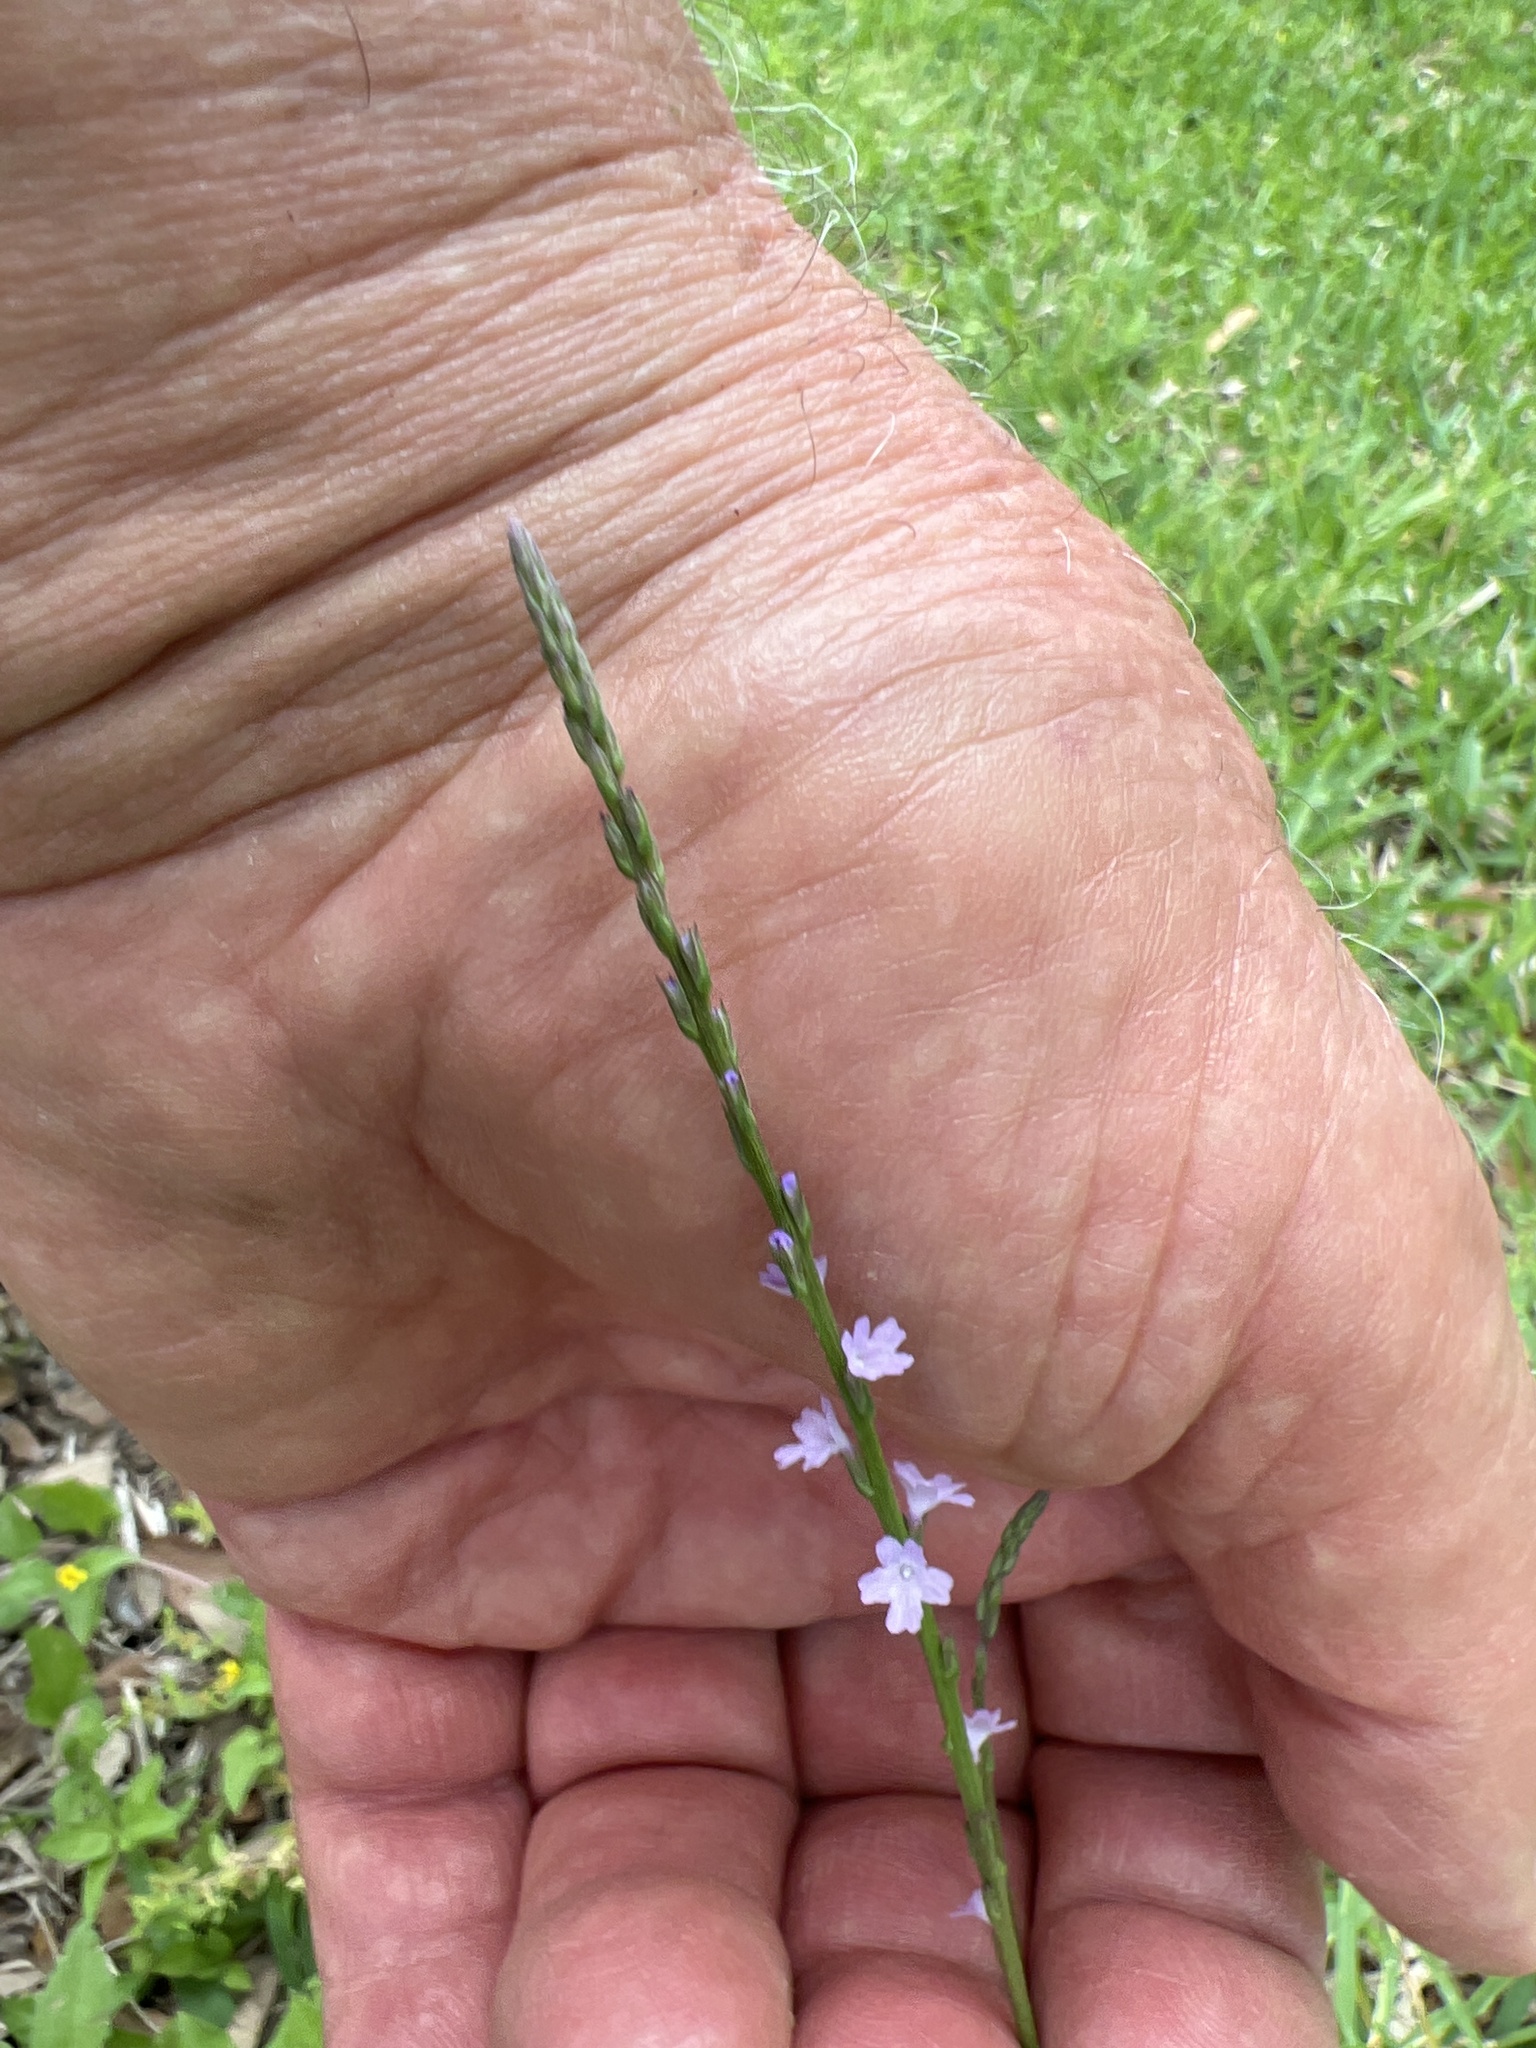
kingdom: Plantae
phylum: Tracheophyta
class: Magnoliopsida
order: Lamiales
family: Verbenaceae
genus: Verbena
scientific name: Verbena halei
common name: Texas vervain
